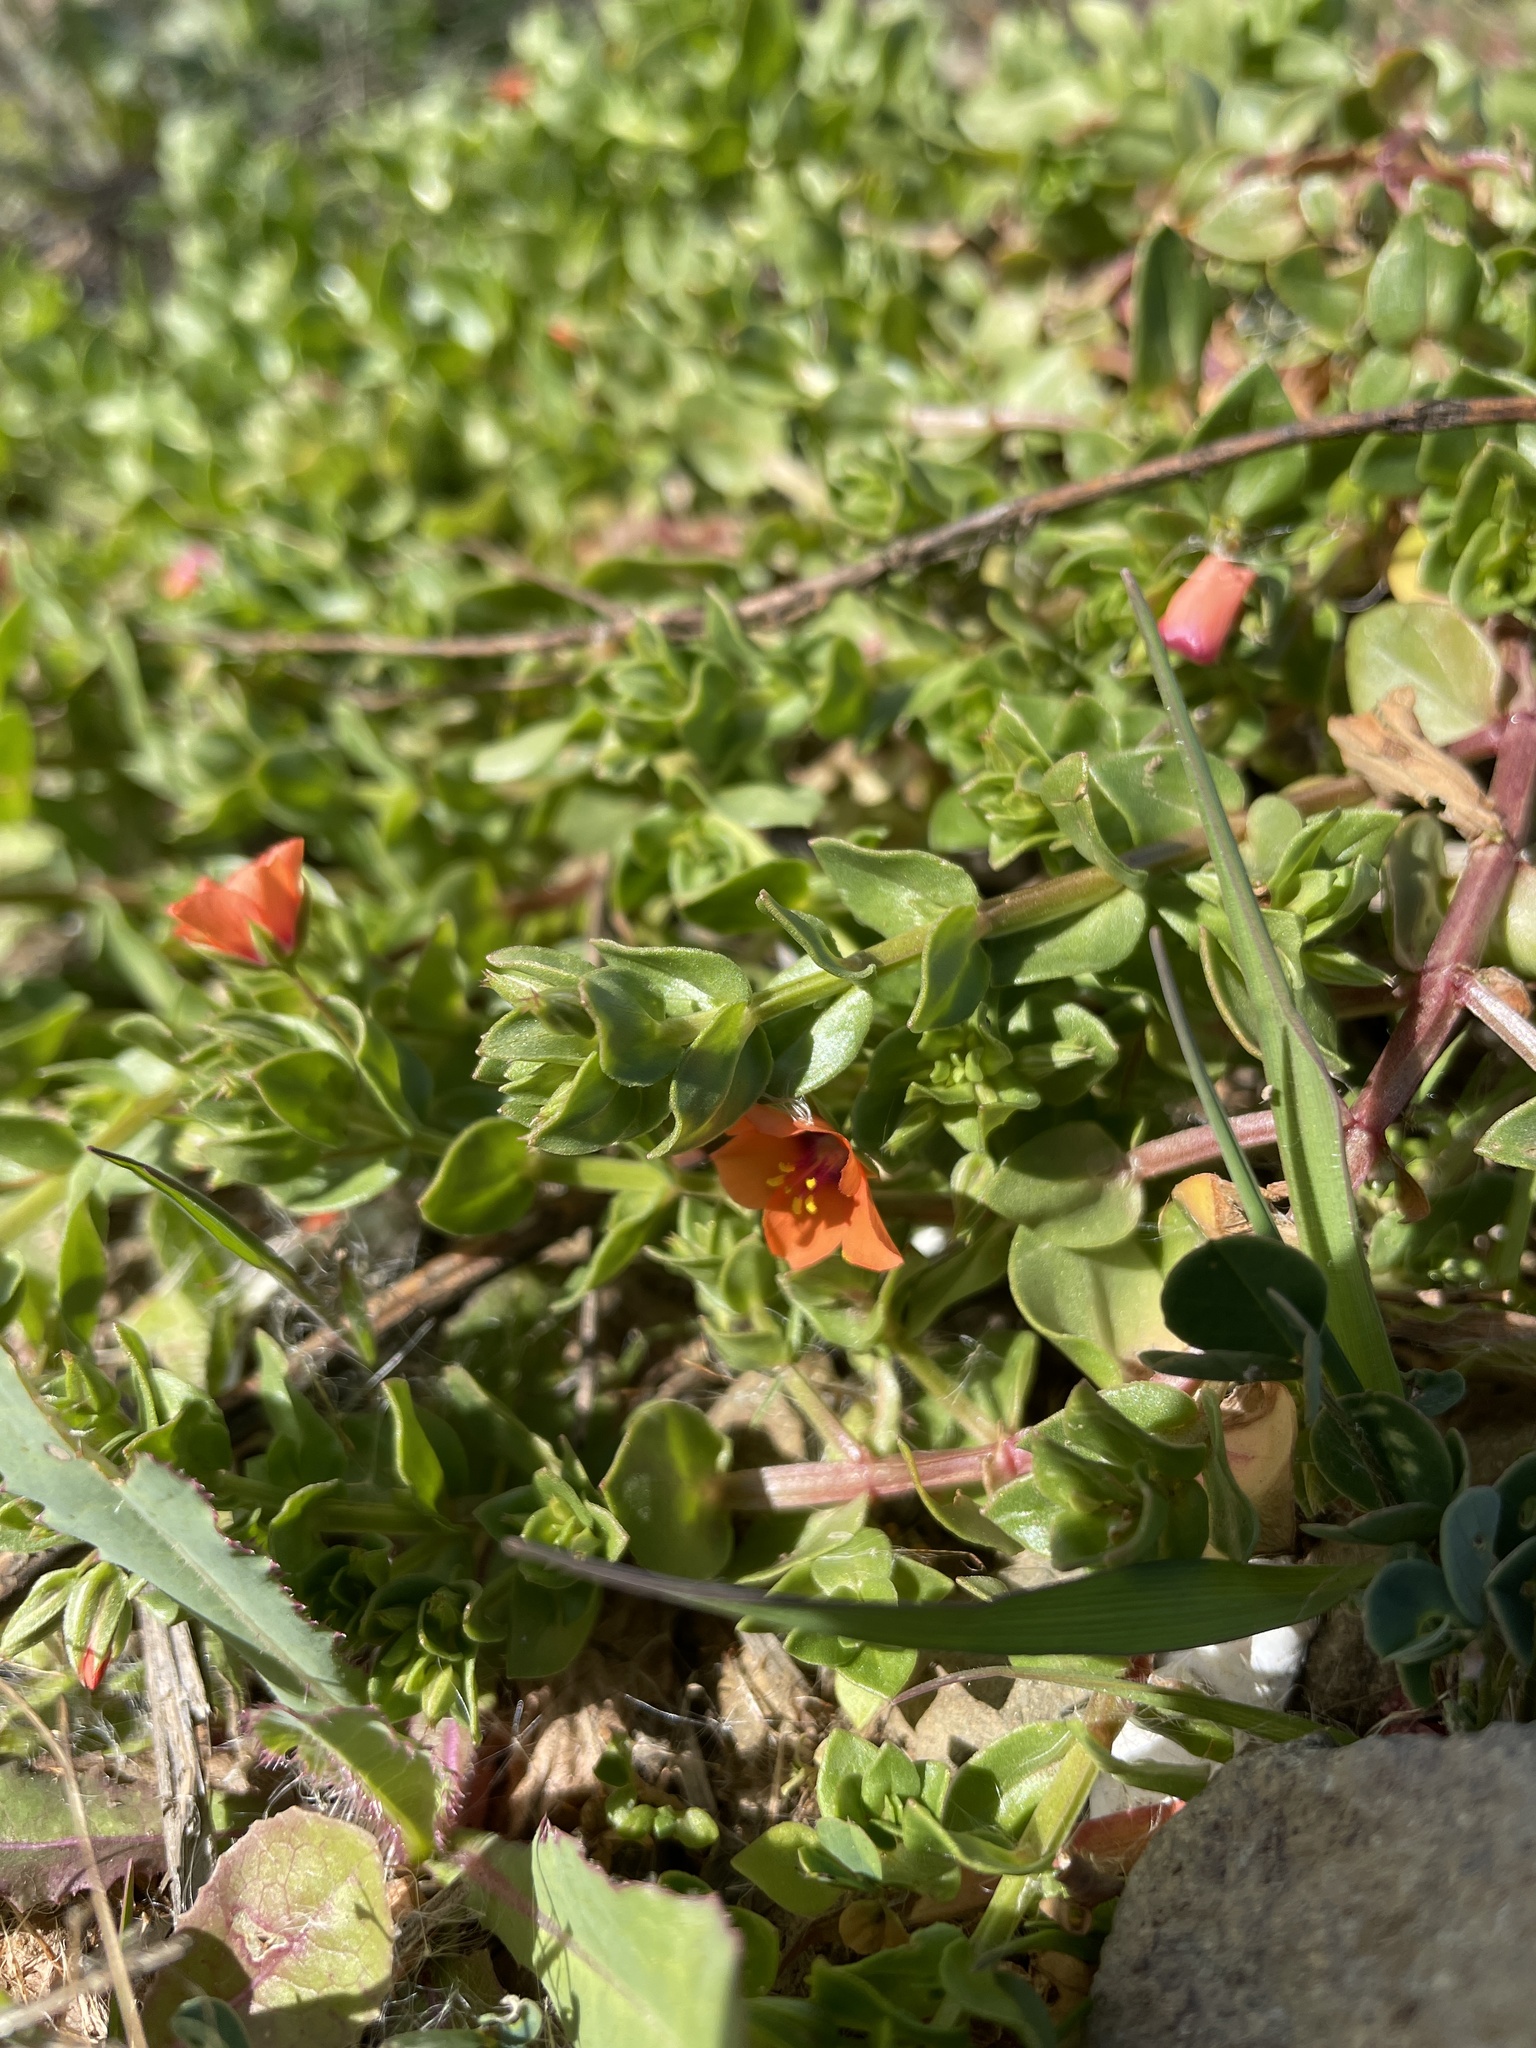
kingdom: Plantae
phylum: Tracheophyta
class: Magnoliopsida
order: Ericales
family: Primulaceae
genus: Lysimachia
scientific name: Lysimachia arvensis
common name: Scarlet pimpernel
